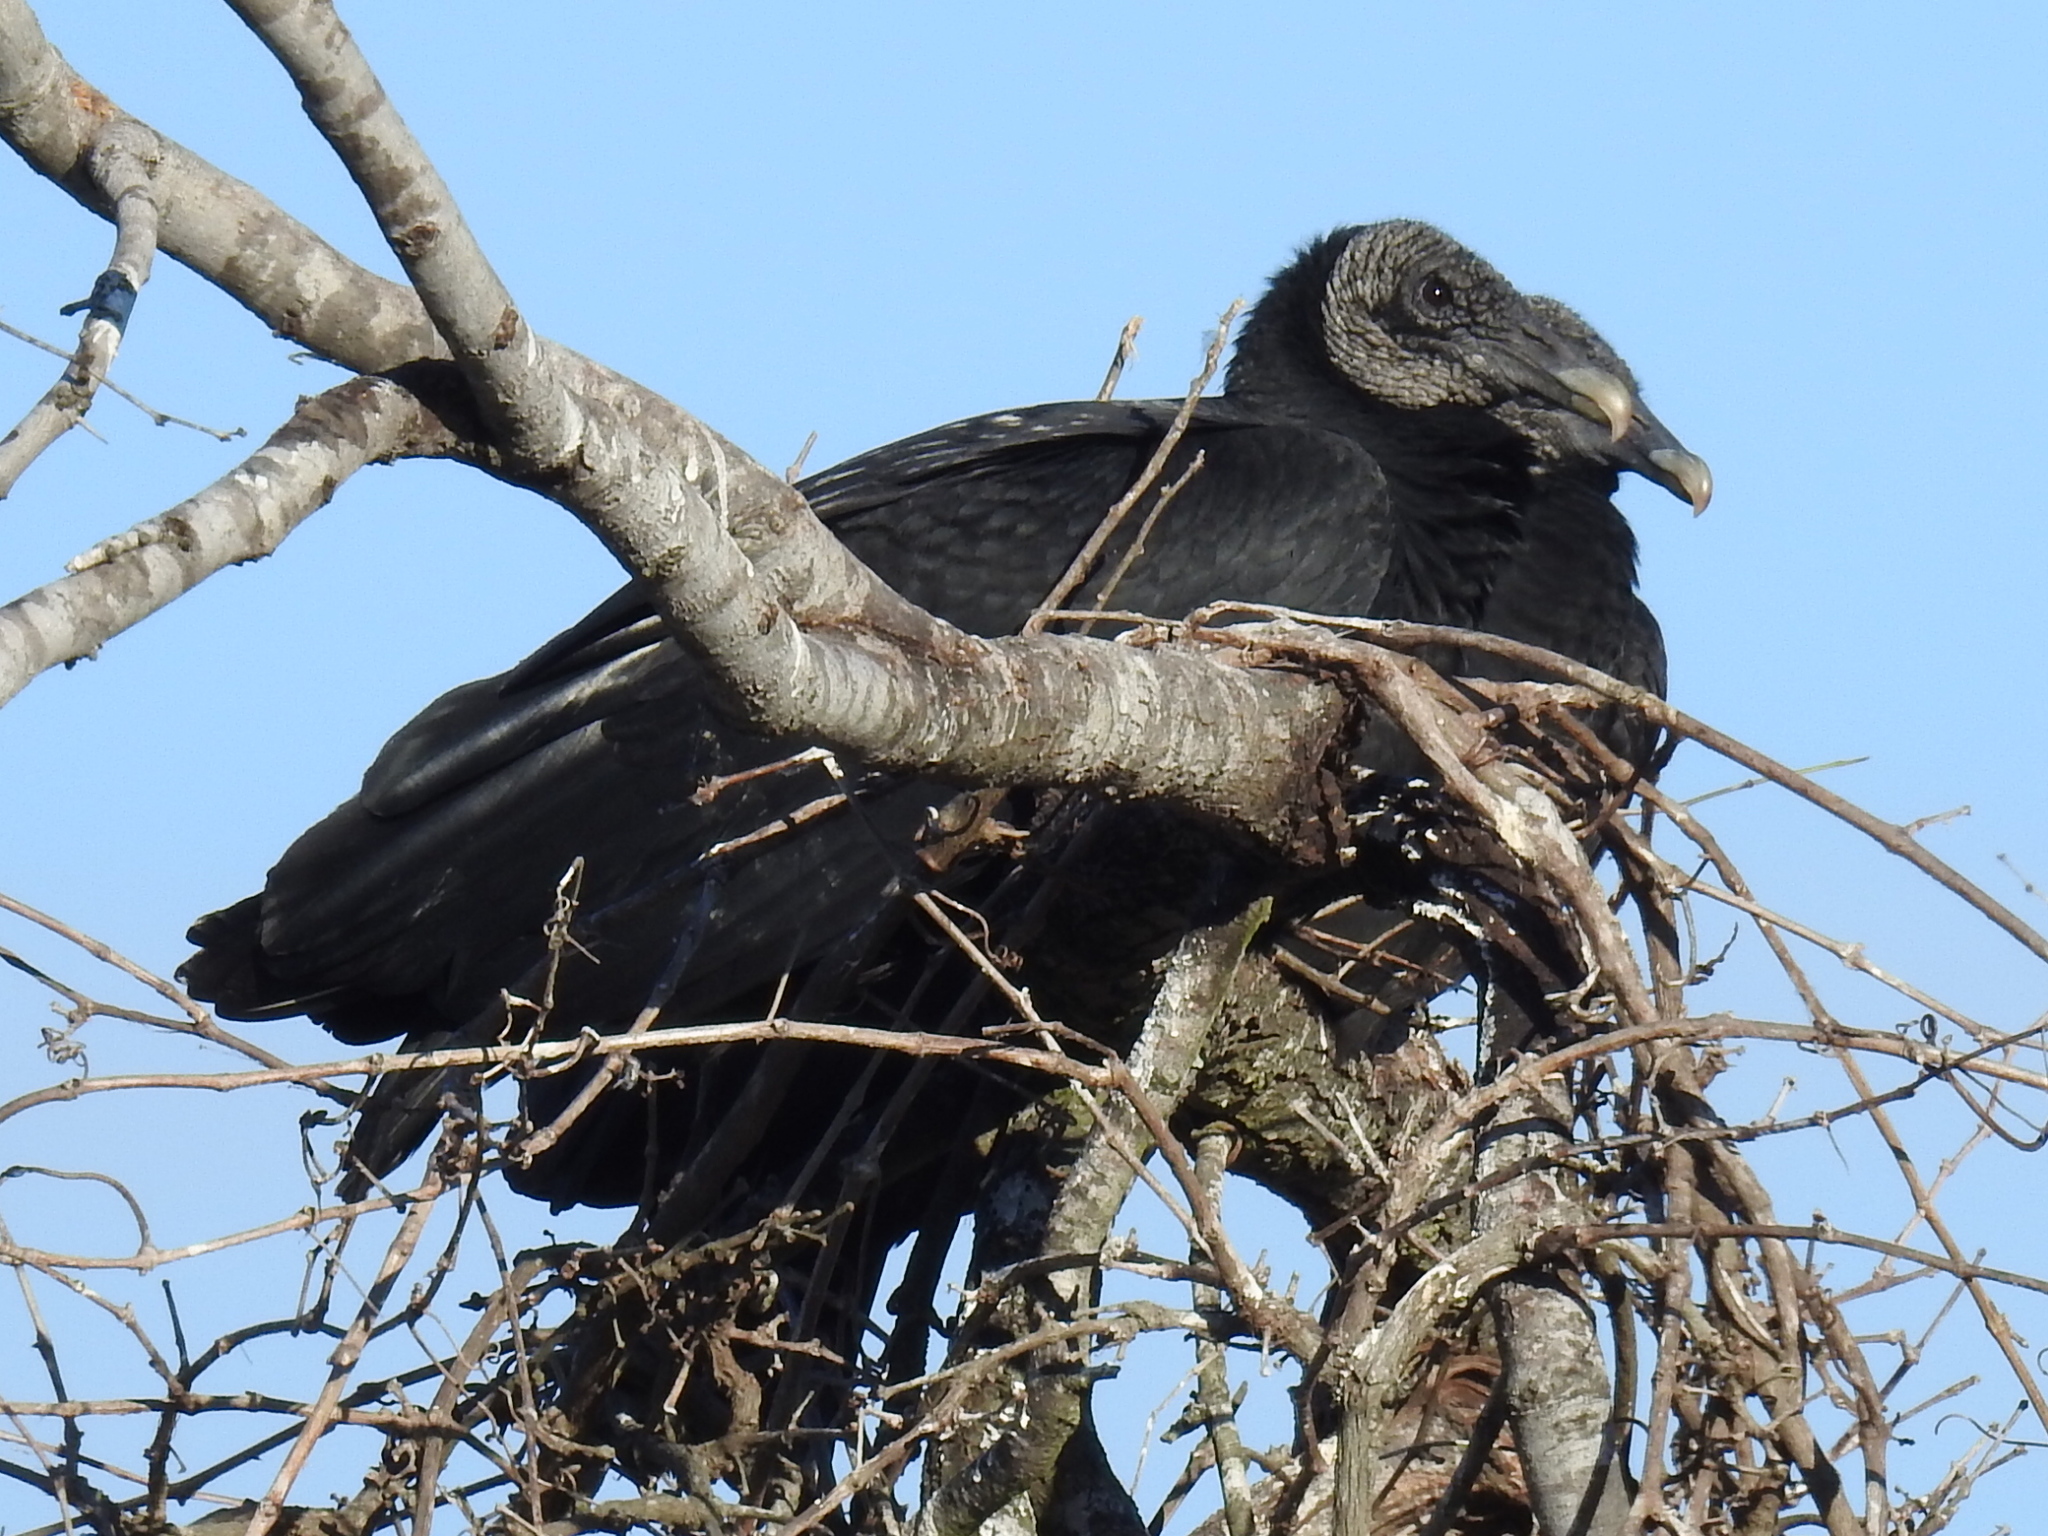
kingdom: Animalia
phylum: Chordata
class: Aves
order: Accipitriformes
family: Cathartidae
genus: Coragyps
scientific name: Coragyps atratus
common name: Black vulture
